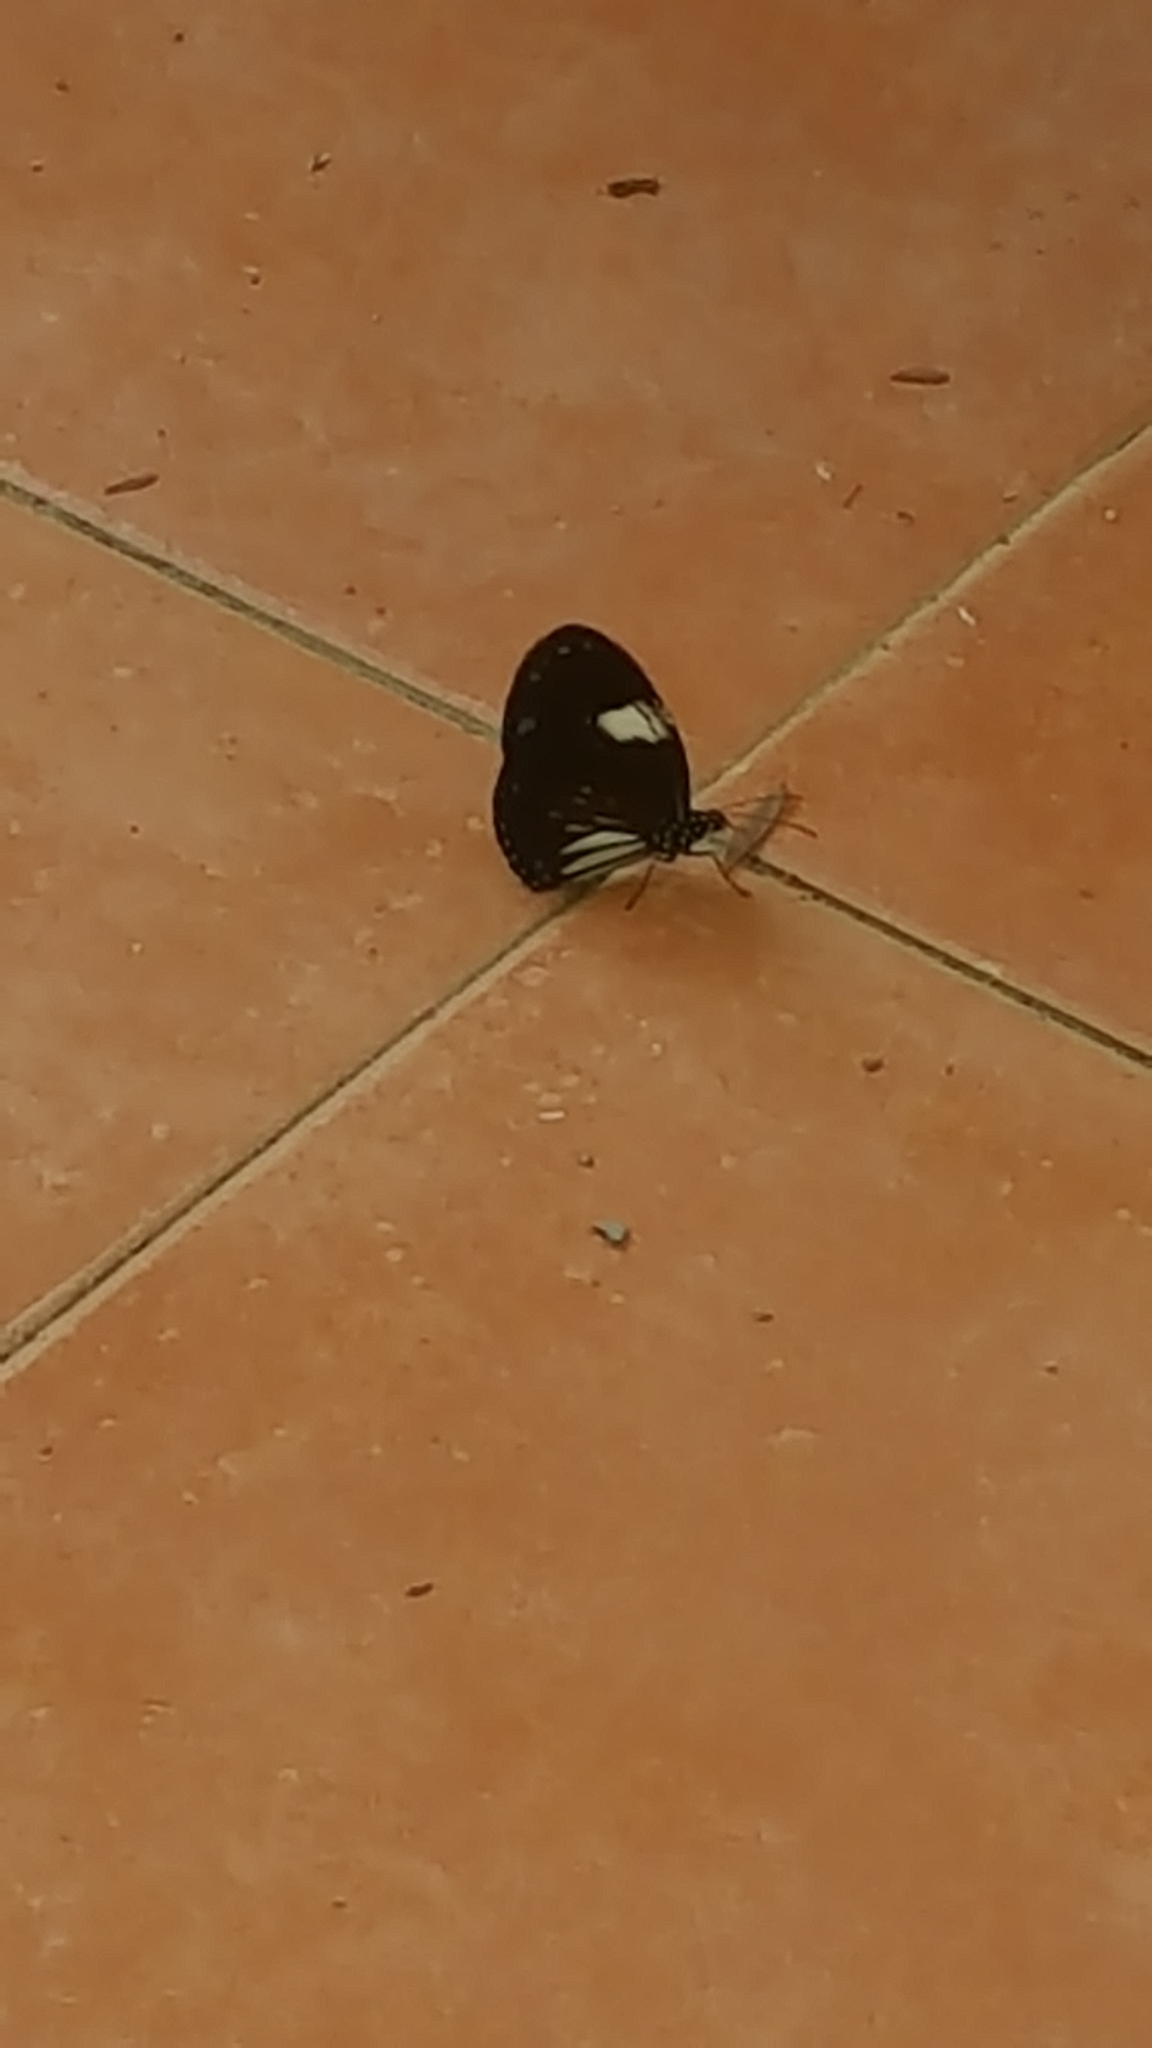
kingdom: Animalia
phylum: Arthropoda
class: Insecta
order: Lepidoptera
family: Nymphalidae
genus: Euploea
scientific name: Euploea radamanthus
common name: Magpie crow butterfly
